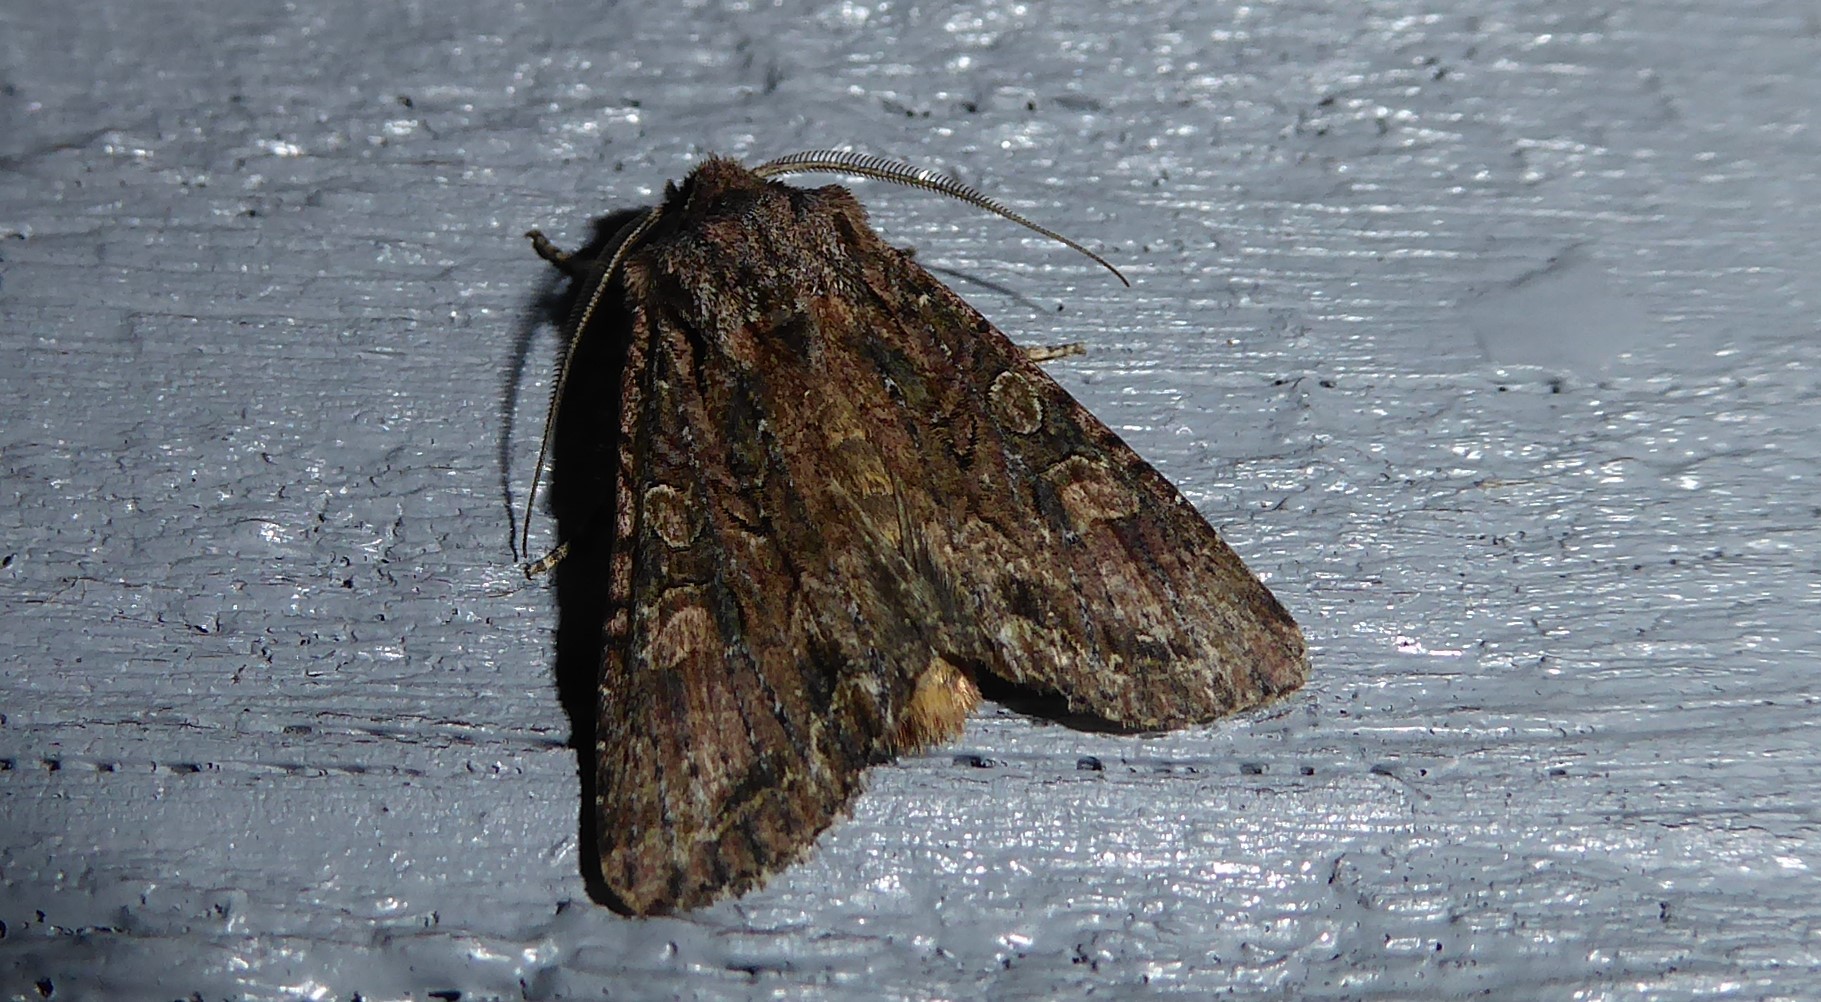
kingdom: Animalia
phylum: Arthropoda
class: Insecta
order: Lepidoptera
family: Noctuidae
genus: Ichneutica
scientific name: Ichneutica mutans
